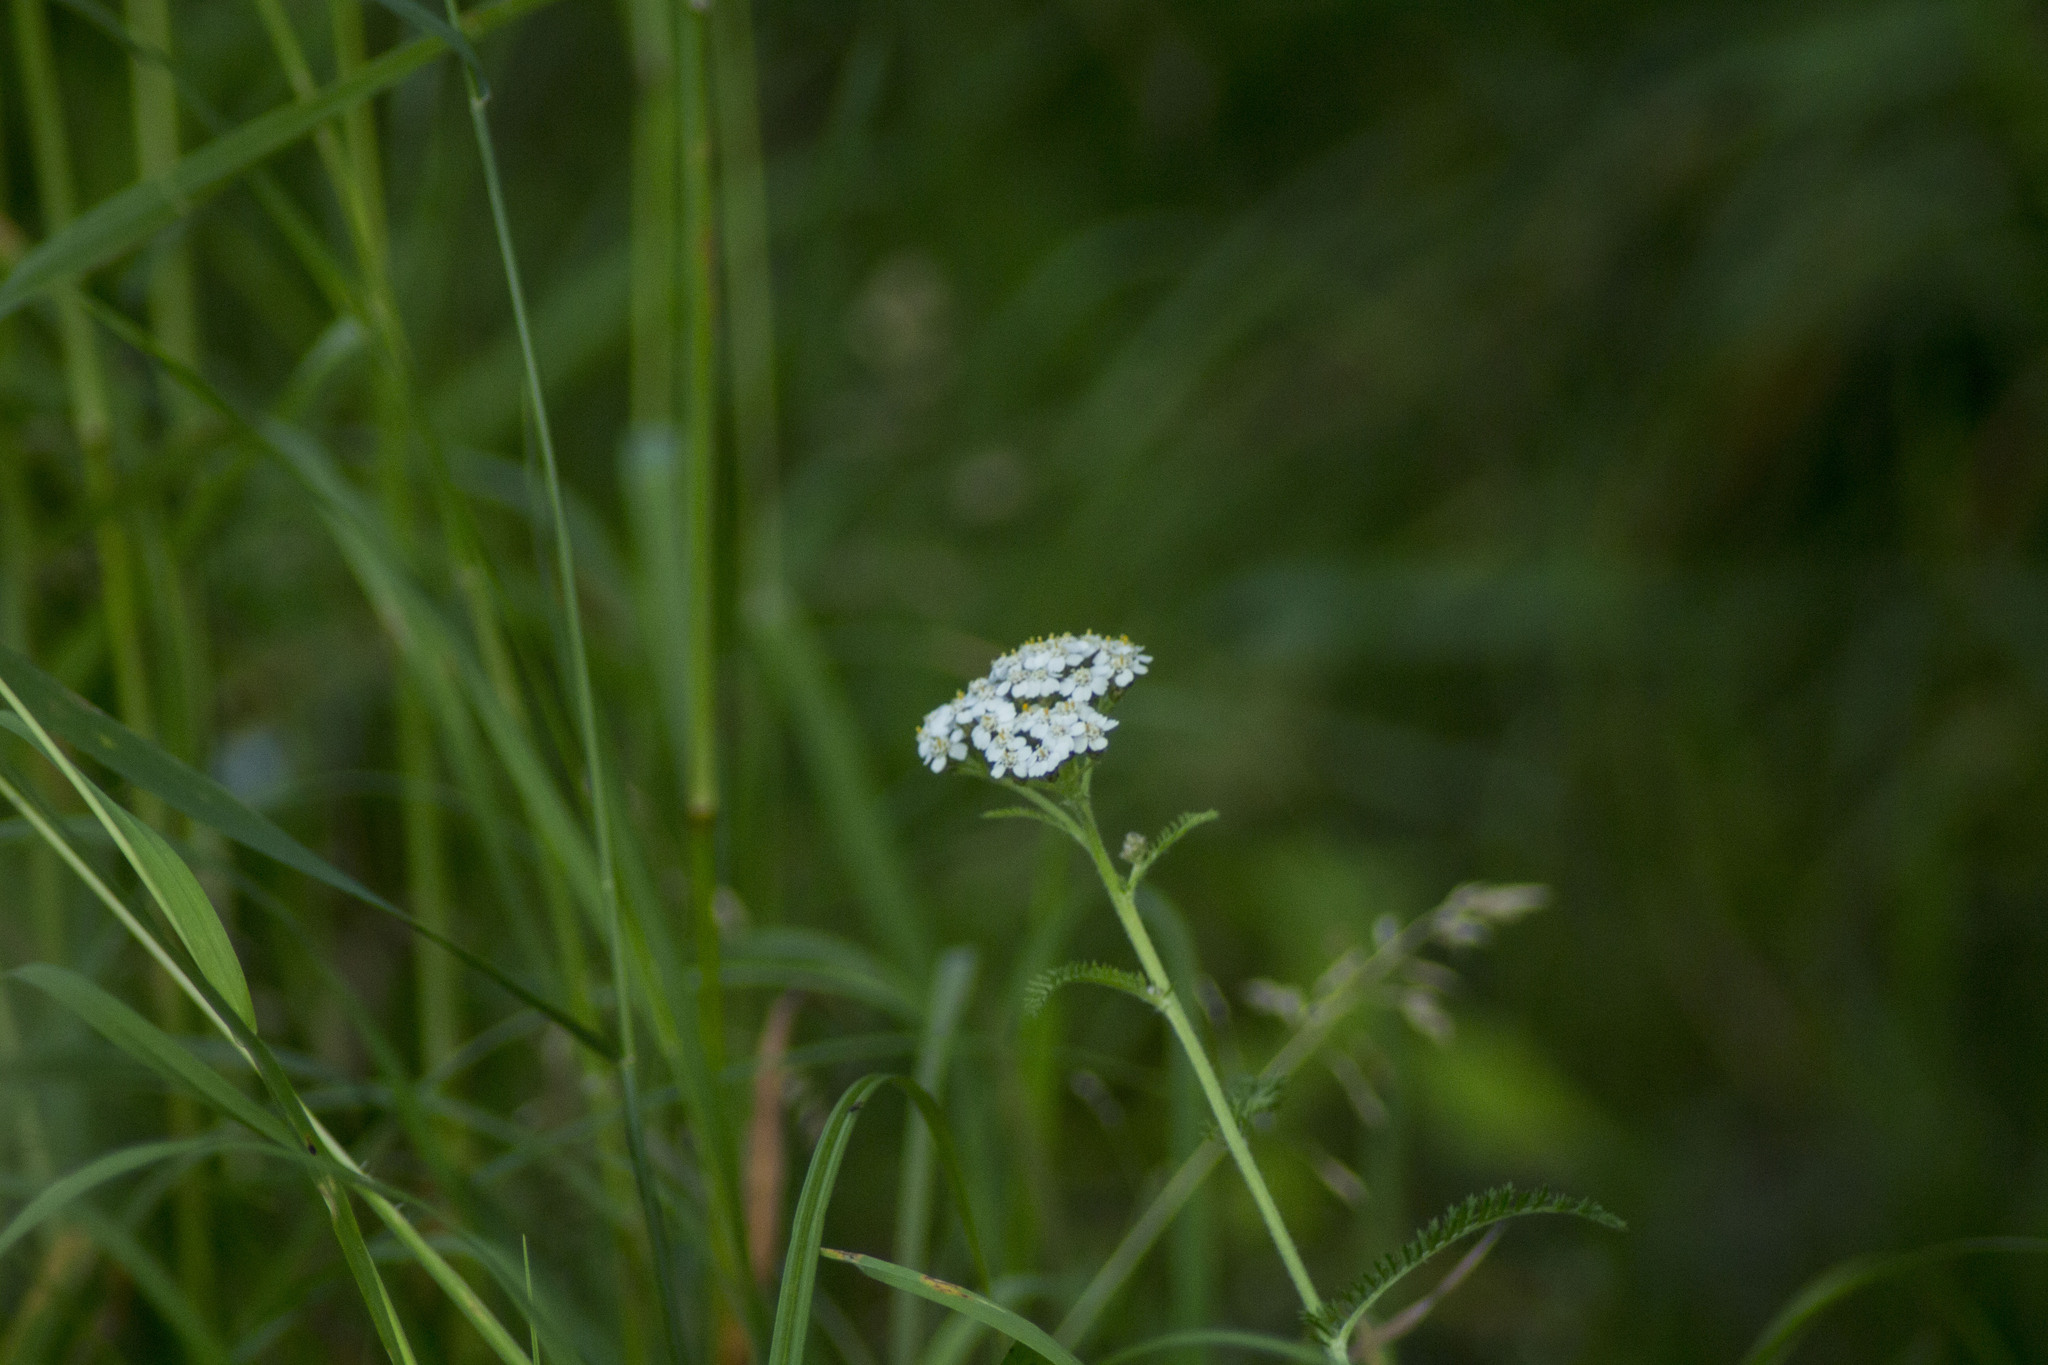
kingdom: Plantae
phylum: Tracheophyta
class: Magnoliopsida
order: Asterales
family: Asteraceae
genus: Achillea
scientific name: Achillea millefolium
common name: Yarrow
